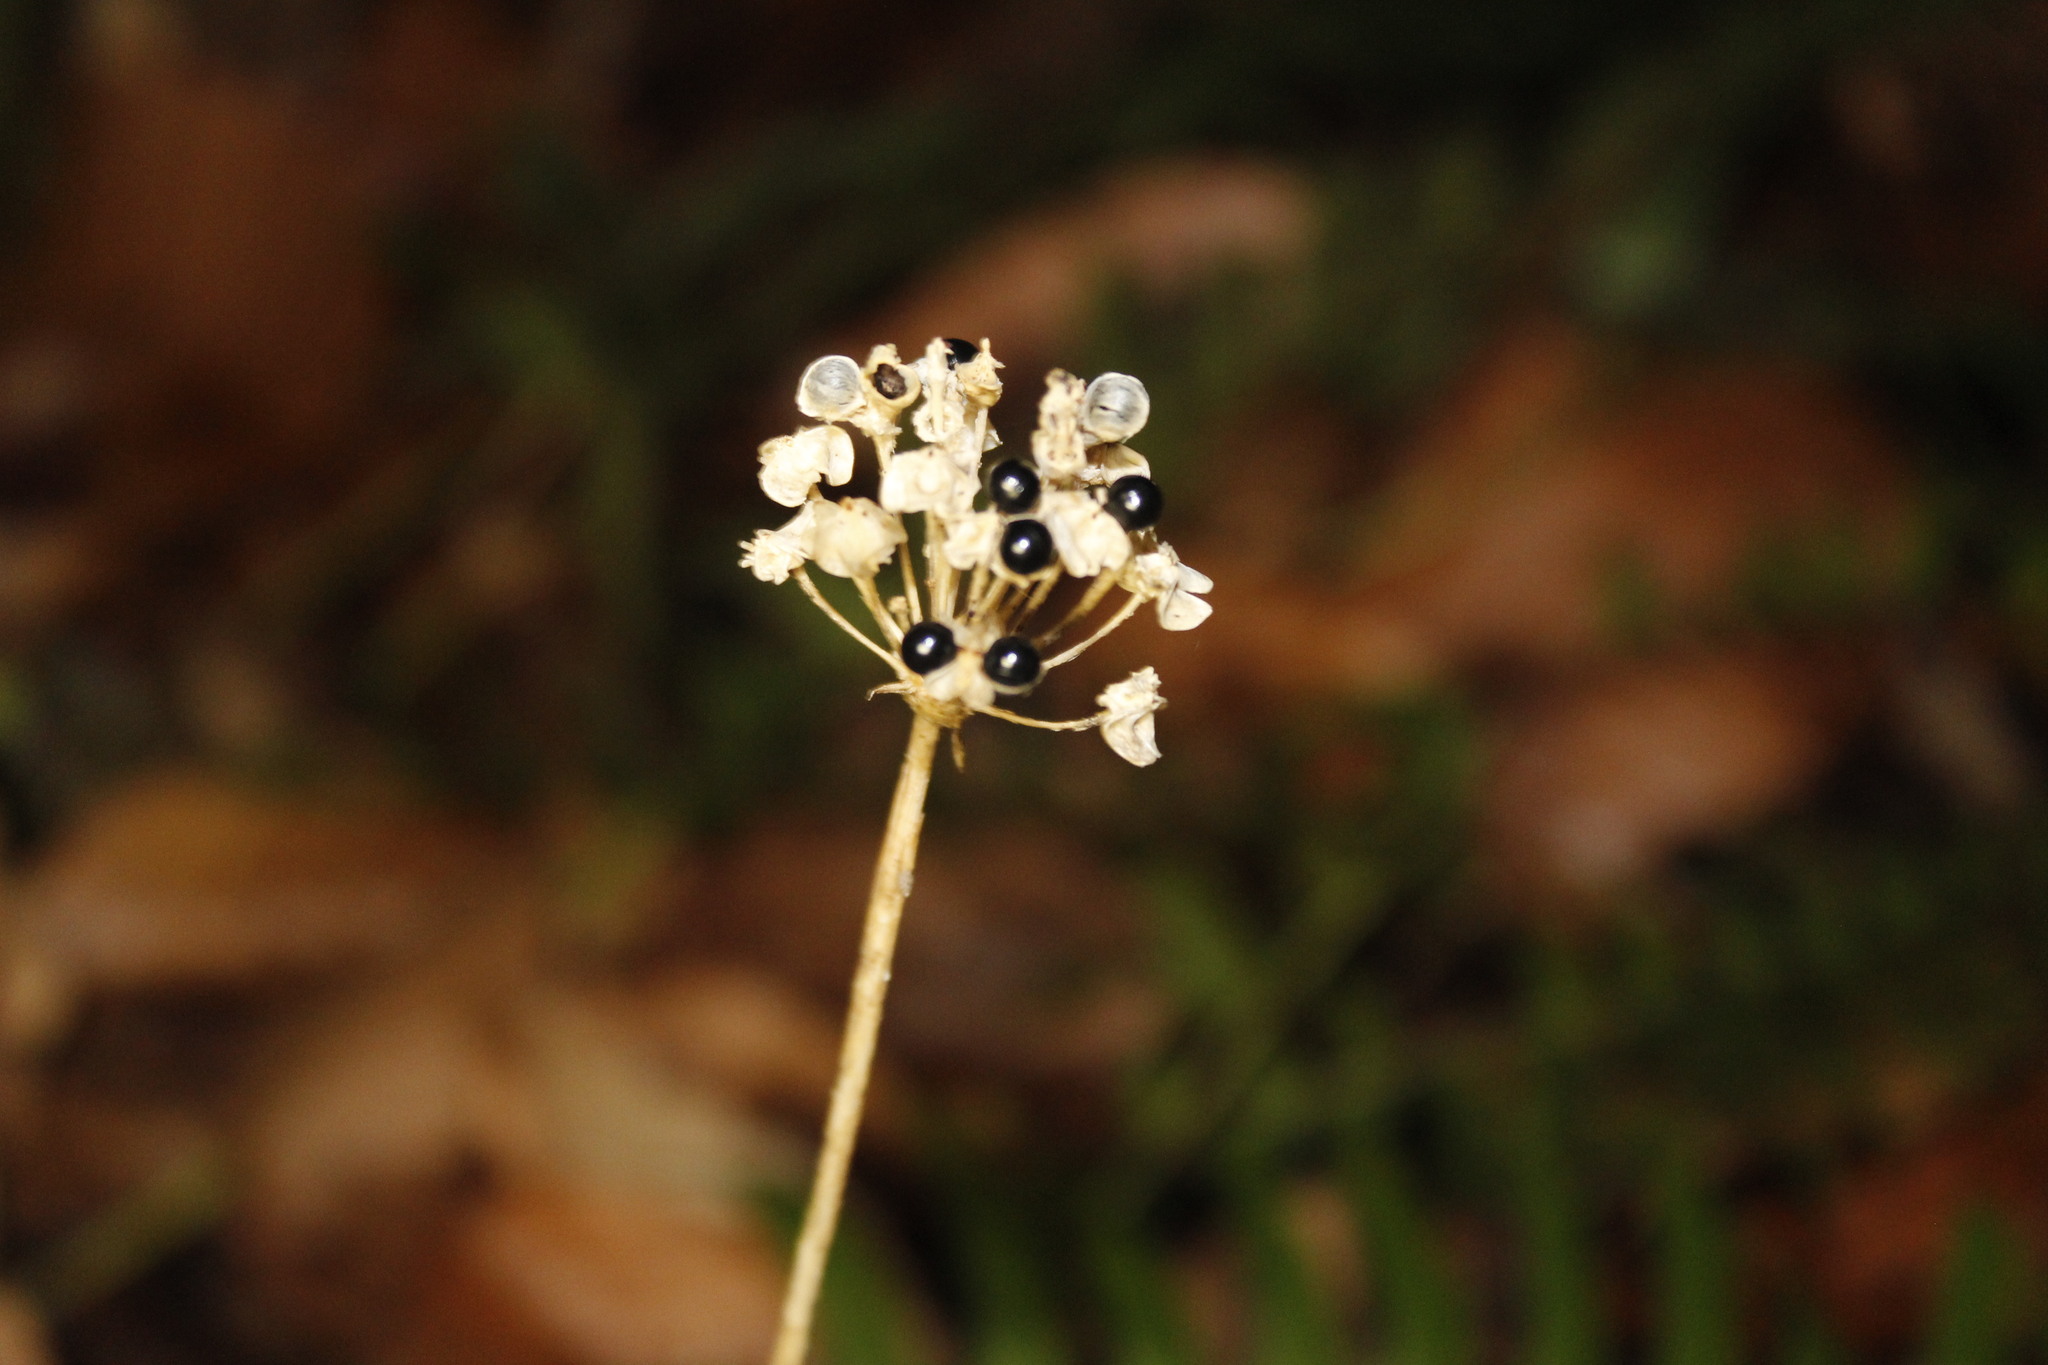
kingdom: Plantae
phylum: Tracheophyta
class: Liliopsida
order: Asparagales
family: Amaryllidaceae
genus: Allium
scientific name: Allium tricoccum
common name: Ramp
